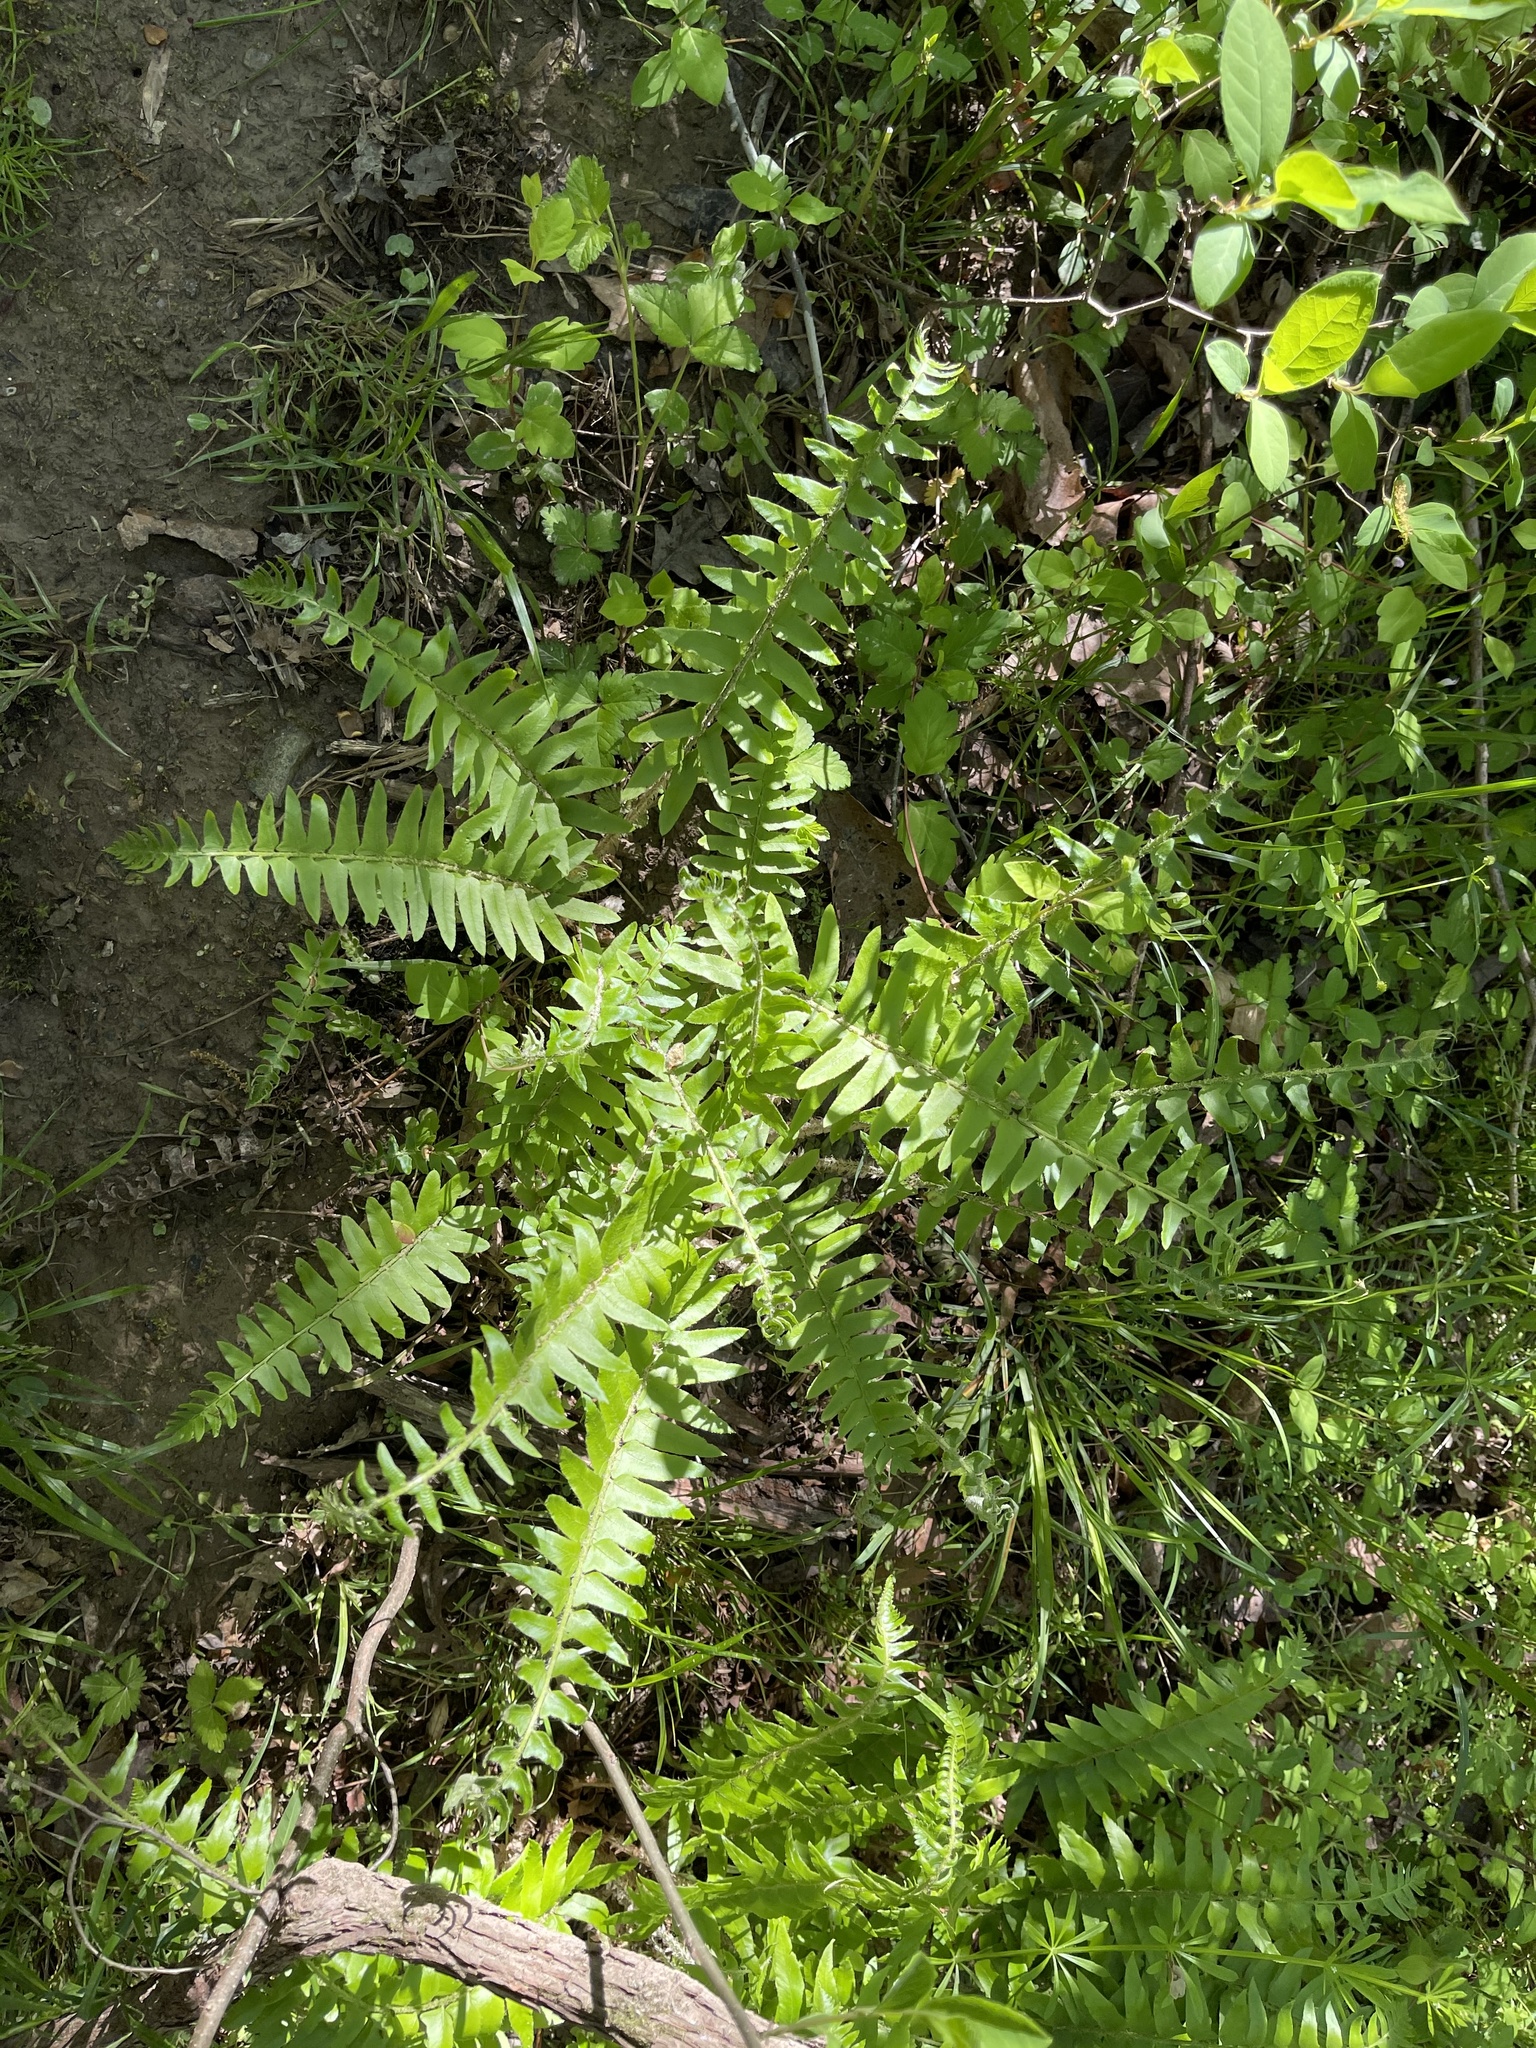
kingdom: Plantae
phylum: Tracheophyta
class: Polypodiopsida
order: Polypodiales
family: Dryopteridaceae
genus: Polystichum
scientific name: Polystichum acrostichoides
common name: Christmas fern
